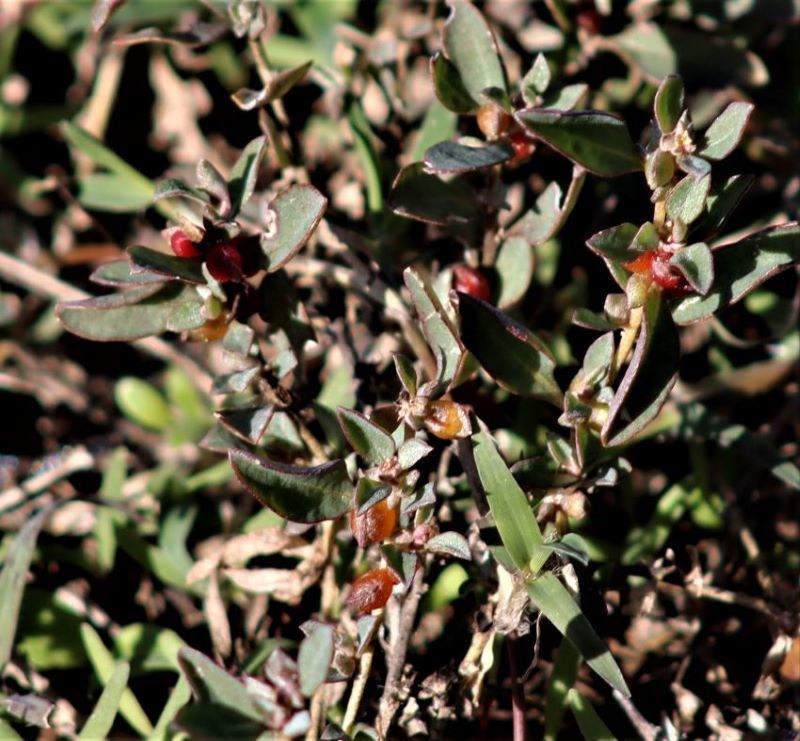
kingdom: Plantae
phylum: Tracheophyta
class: Magnoliopsida
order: Caryophyllales
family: Amaranthaceae
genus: Atriplex
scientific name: Atriplex semibaccata
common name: Australian saltbush
